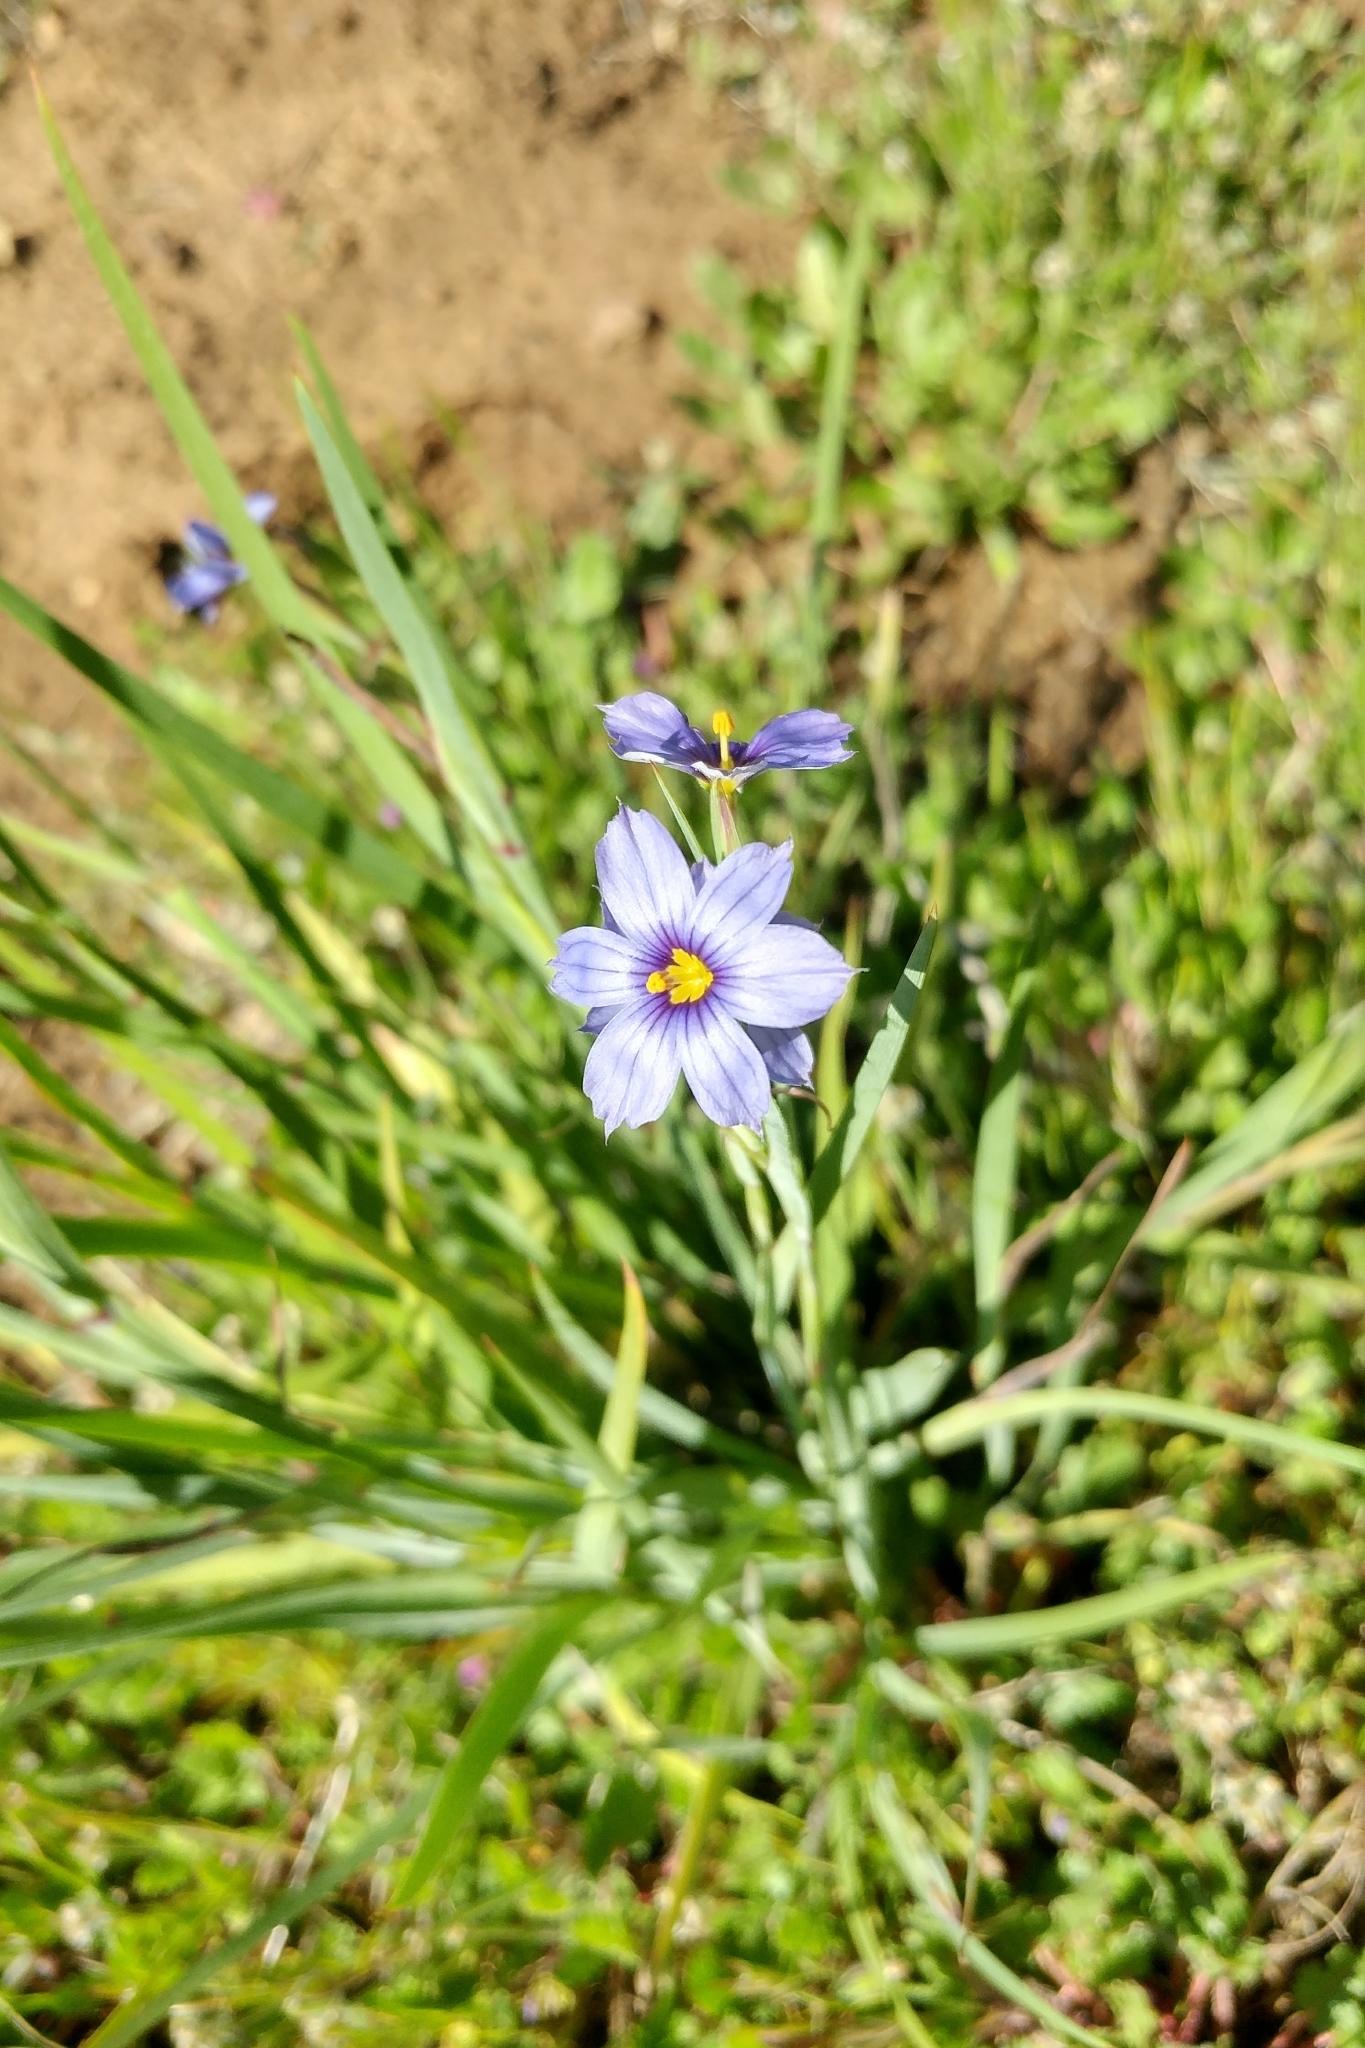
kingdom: Plantae
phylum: Tracheophyta
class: Liliopsida
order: Asparagales
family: Iridaceae
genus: Sisyrinchium
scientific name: Sisyrinchium bellum
